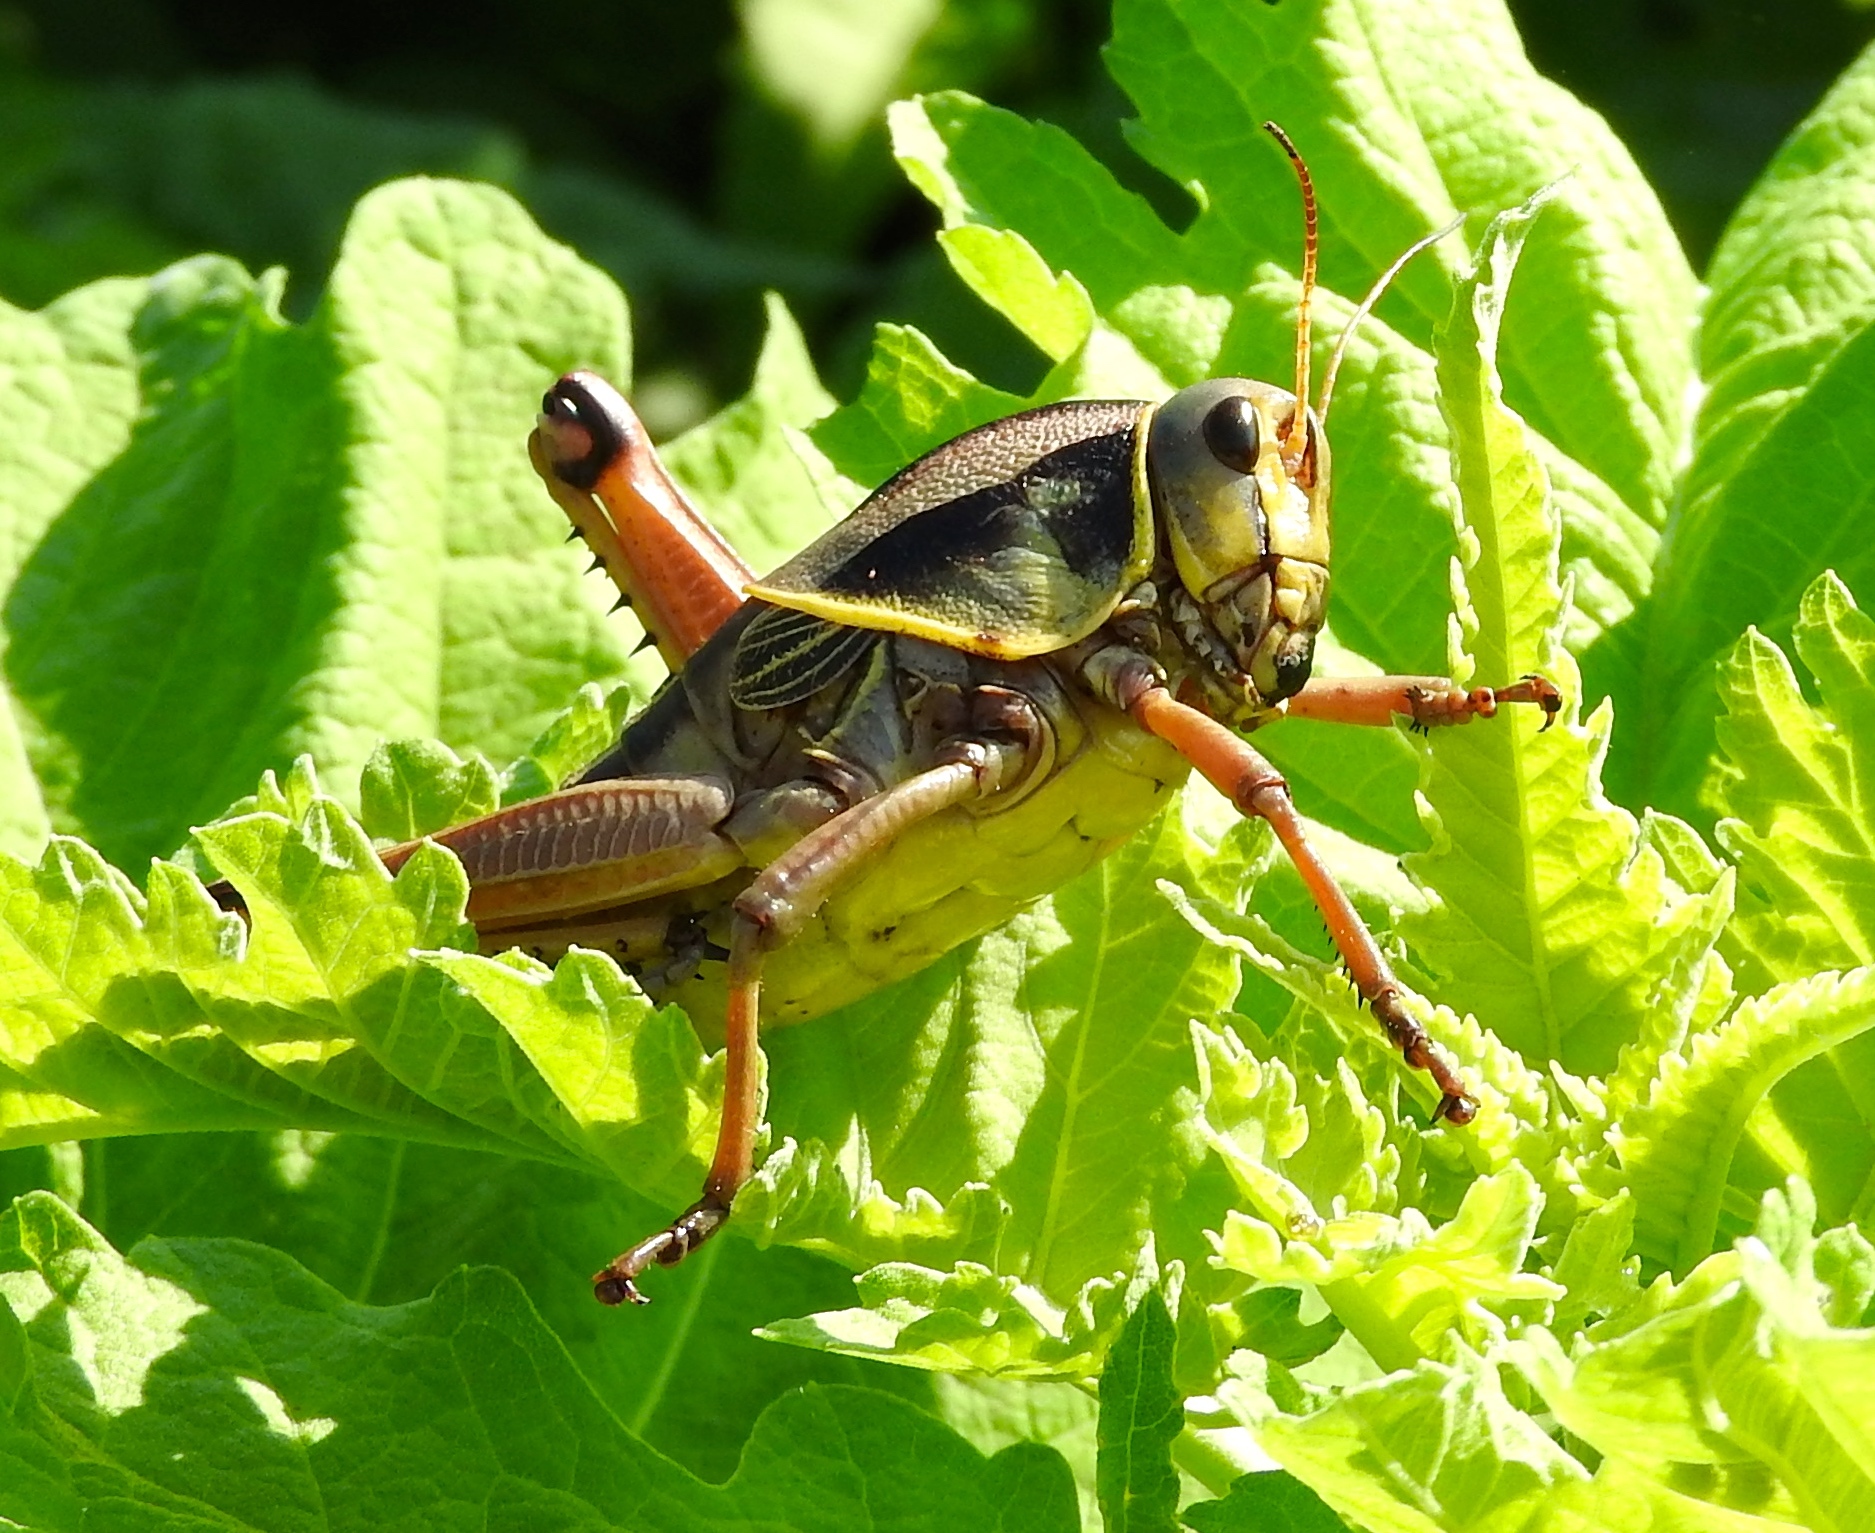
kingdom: Animalia
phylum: Arthropoda
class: Insecta
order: Orthoptera
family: Romaleidae
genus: Brachystola
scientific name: Brachystola
